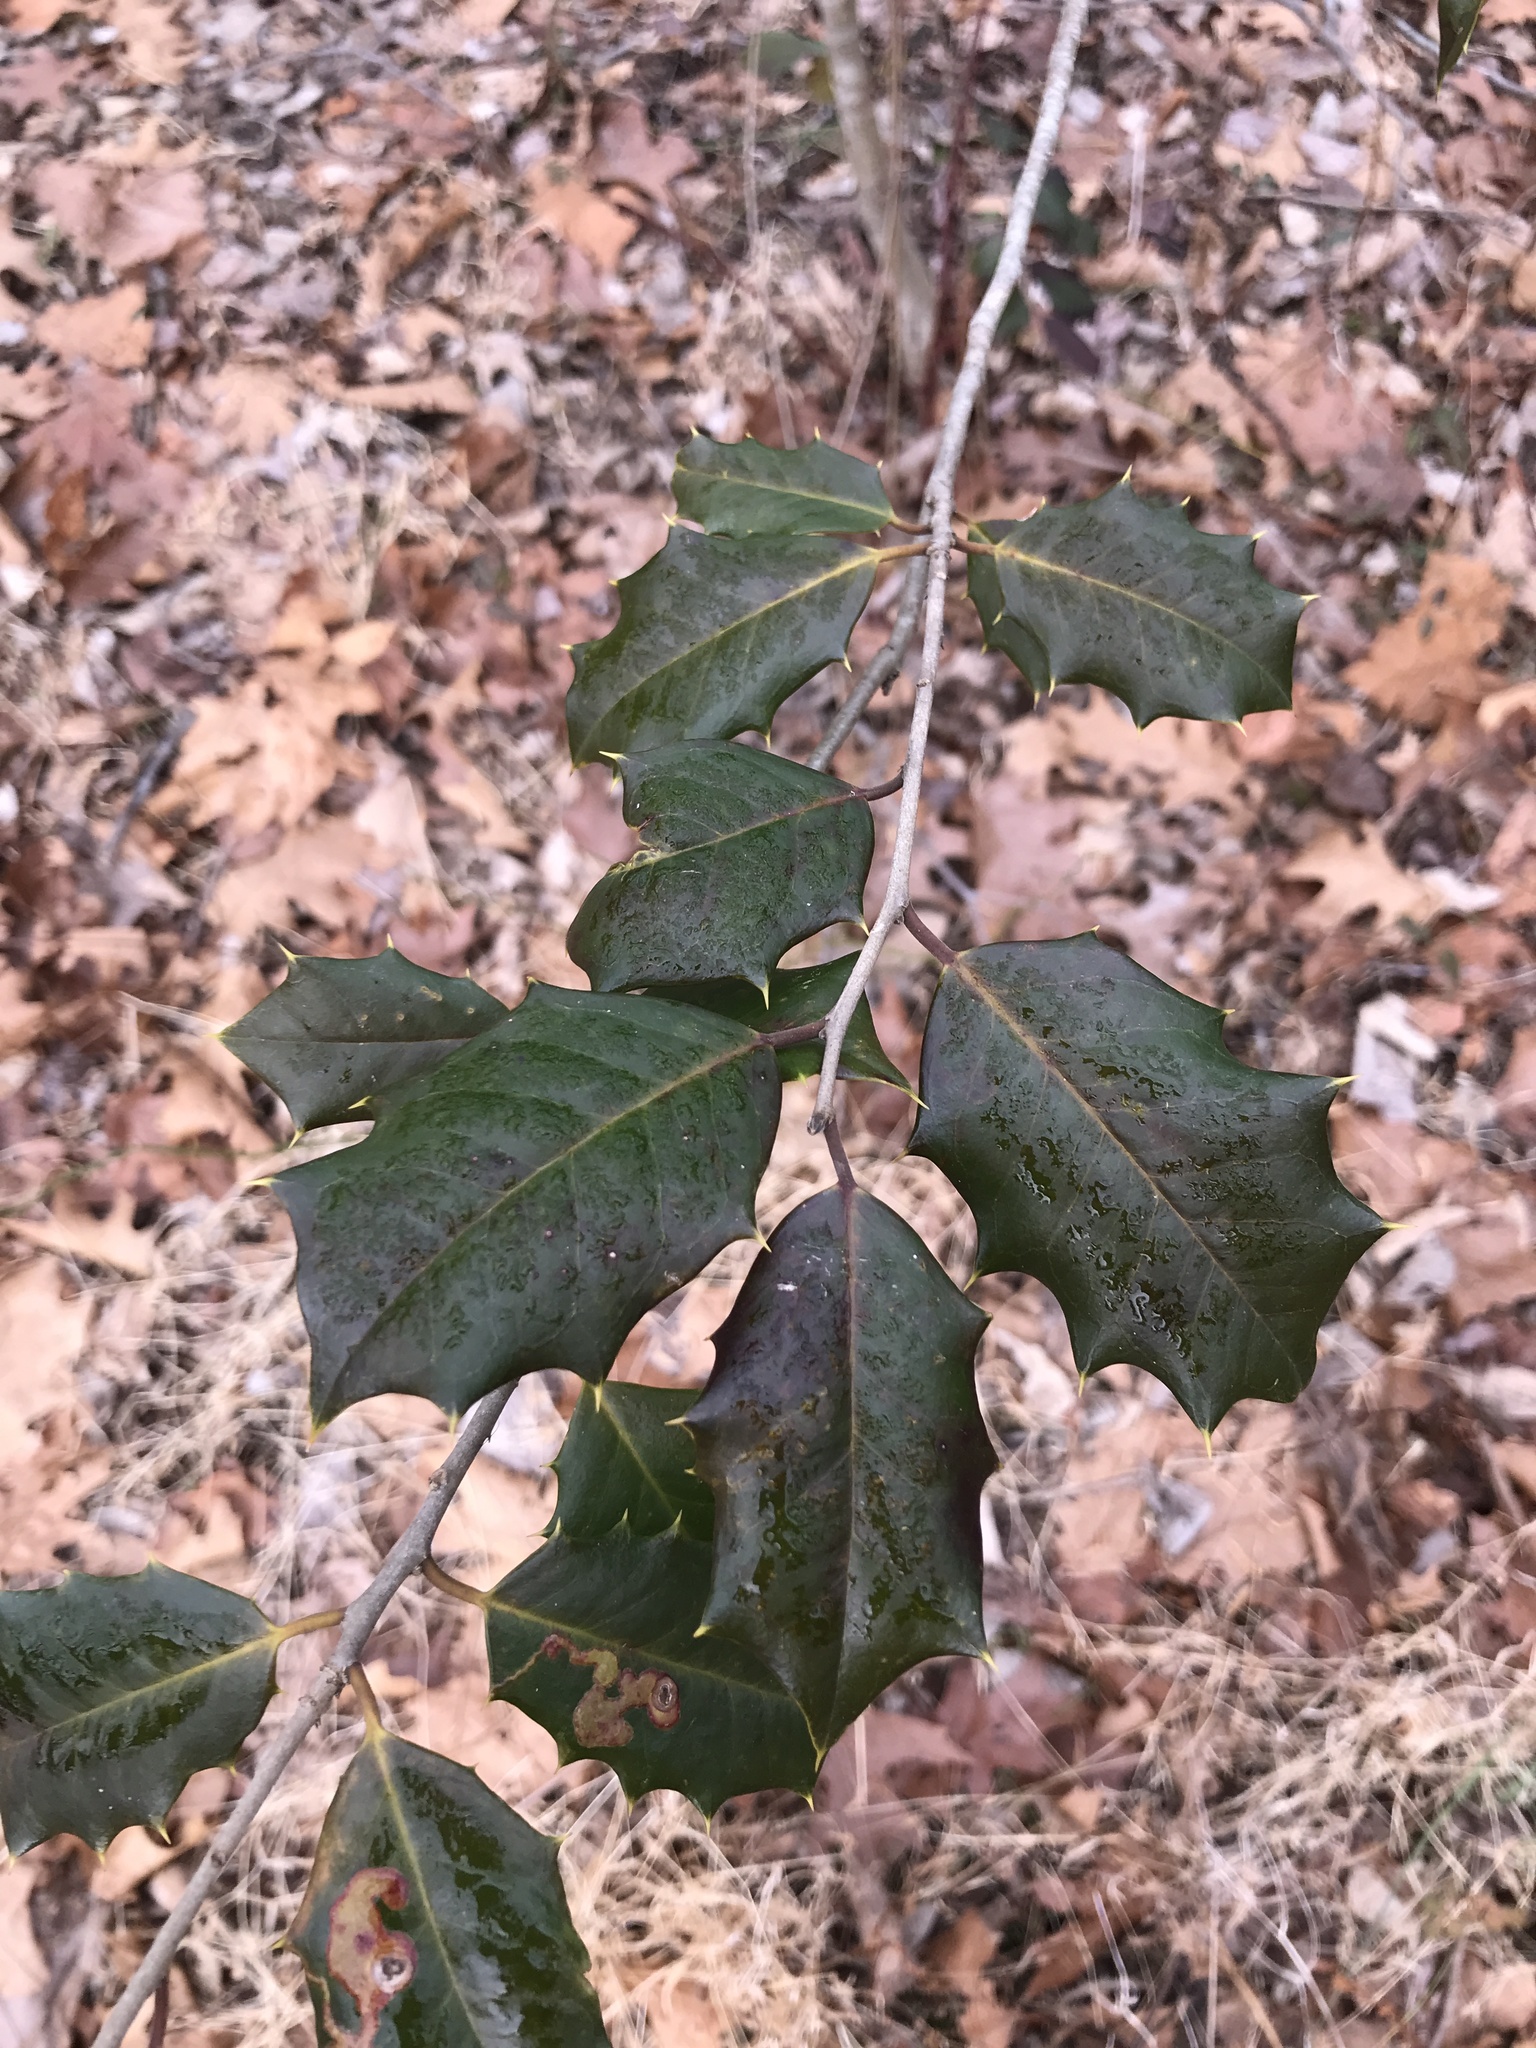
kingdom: Plantae
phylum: Tracheophyta
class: Magnoliopsida
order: Aquifoliales
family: Aquifoliaceae
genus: Ilex
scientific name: Ilex opaca
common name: American holly
